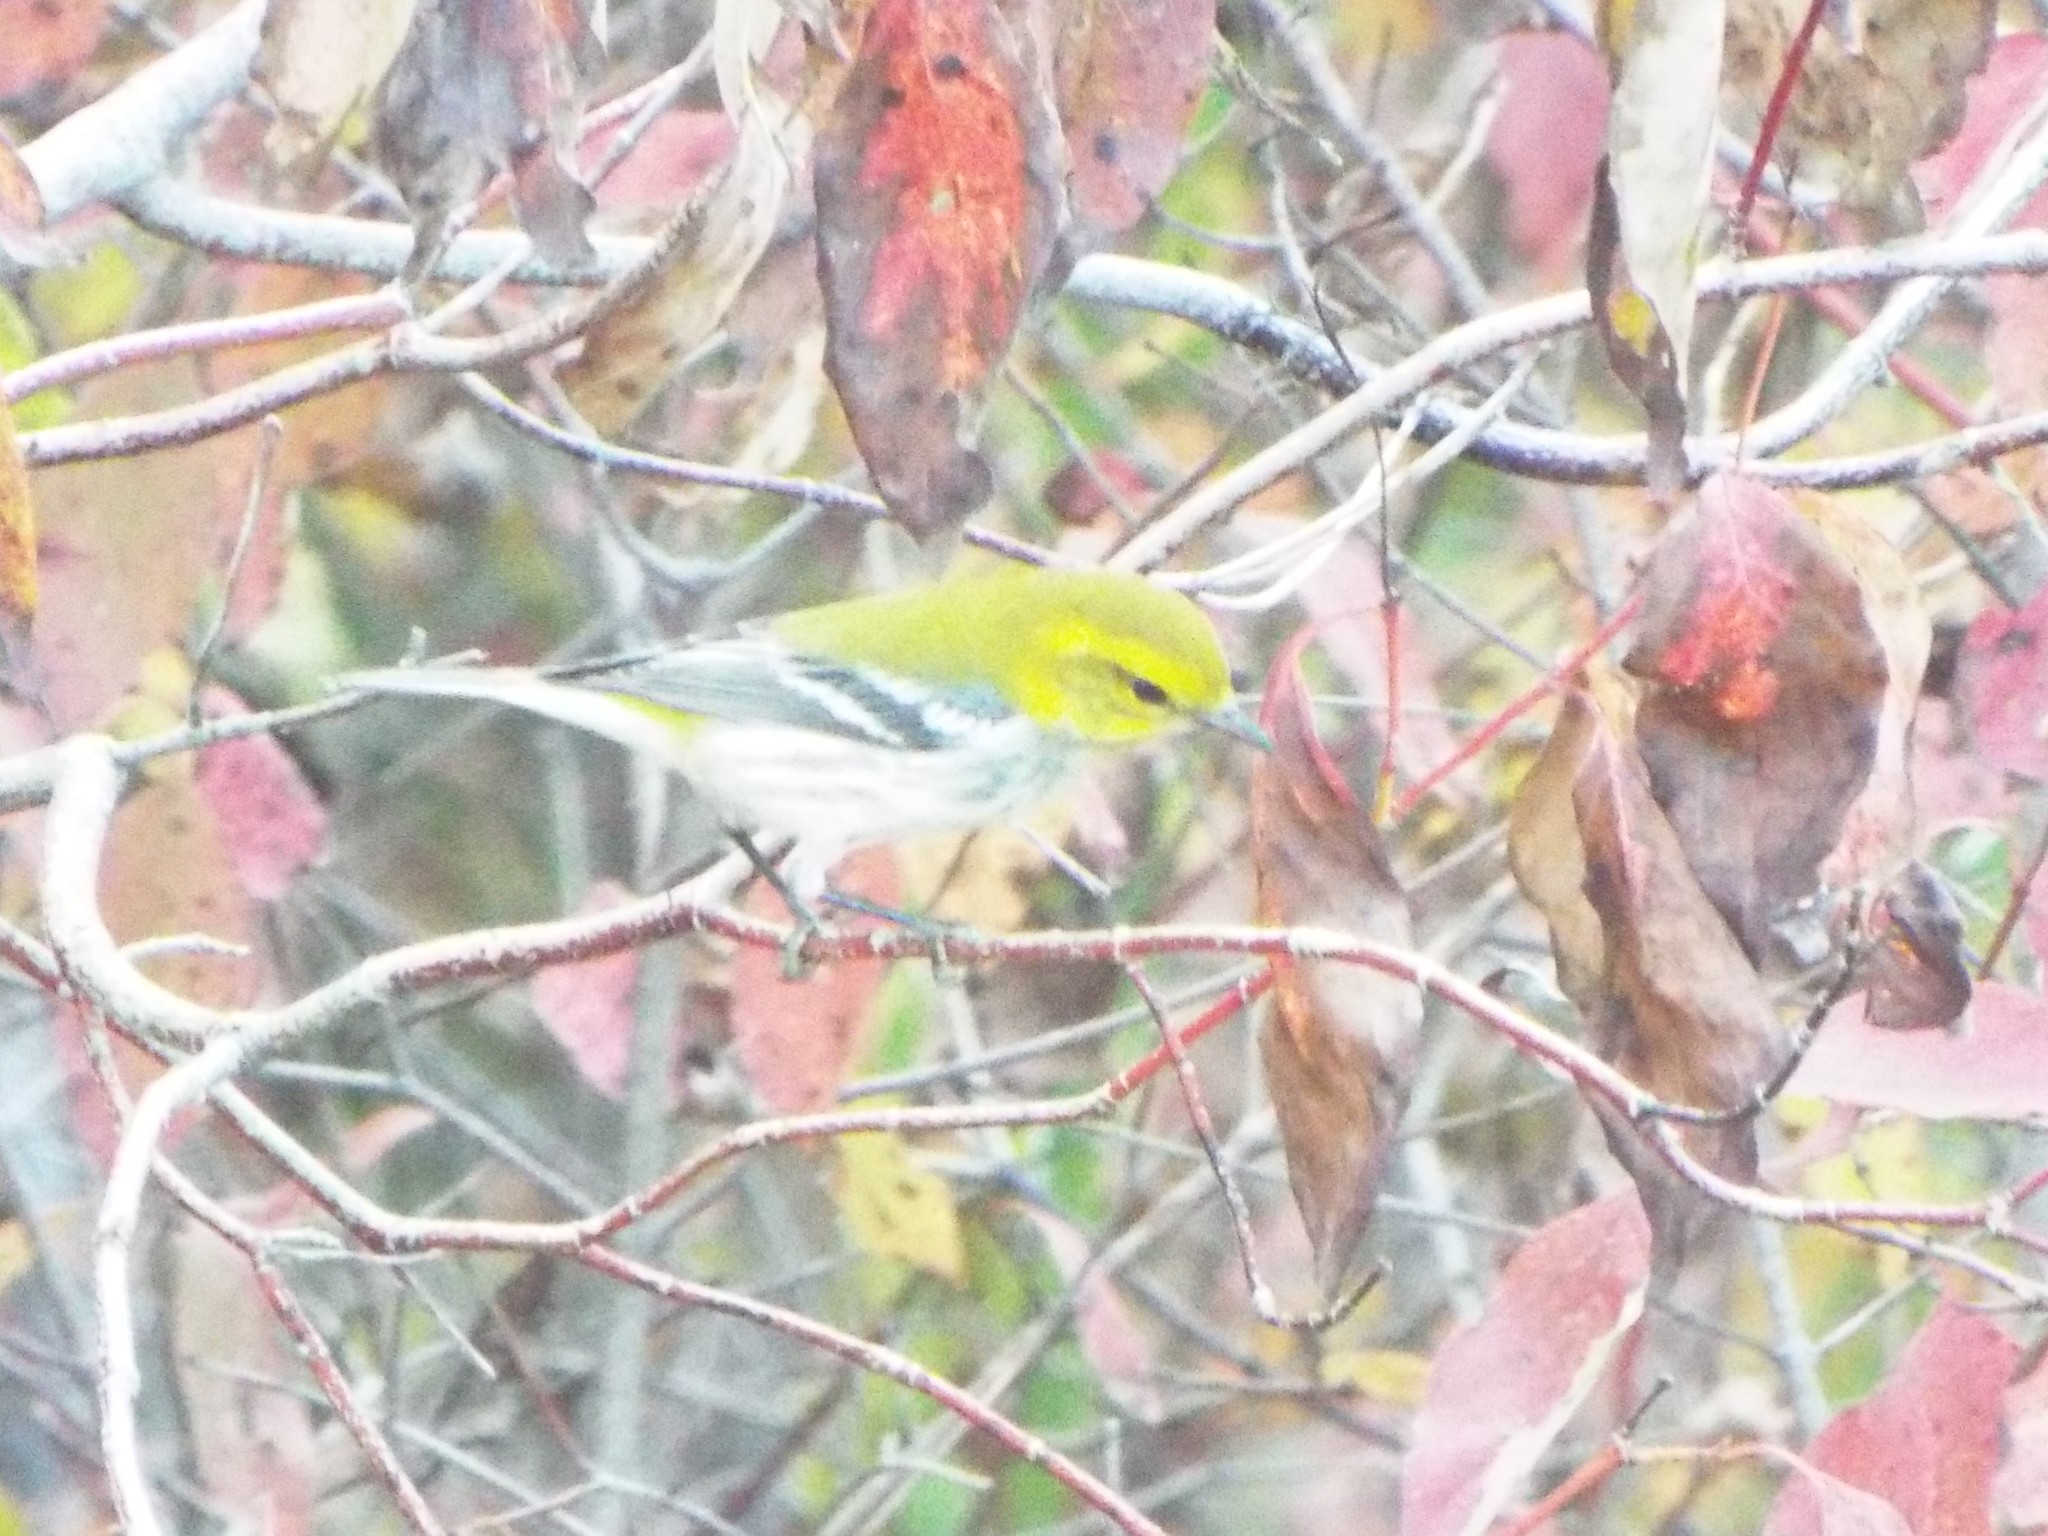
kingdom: Animalia
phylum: Chordata
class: Aves
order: Passeriformes
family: Parulidae
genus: Setophaga
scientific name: Setophaga virens
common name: Black-throated green warbler
